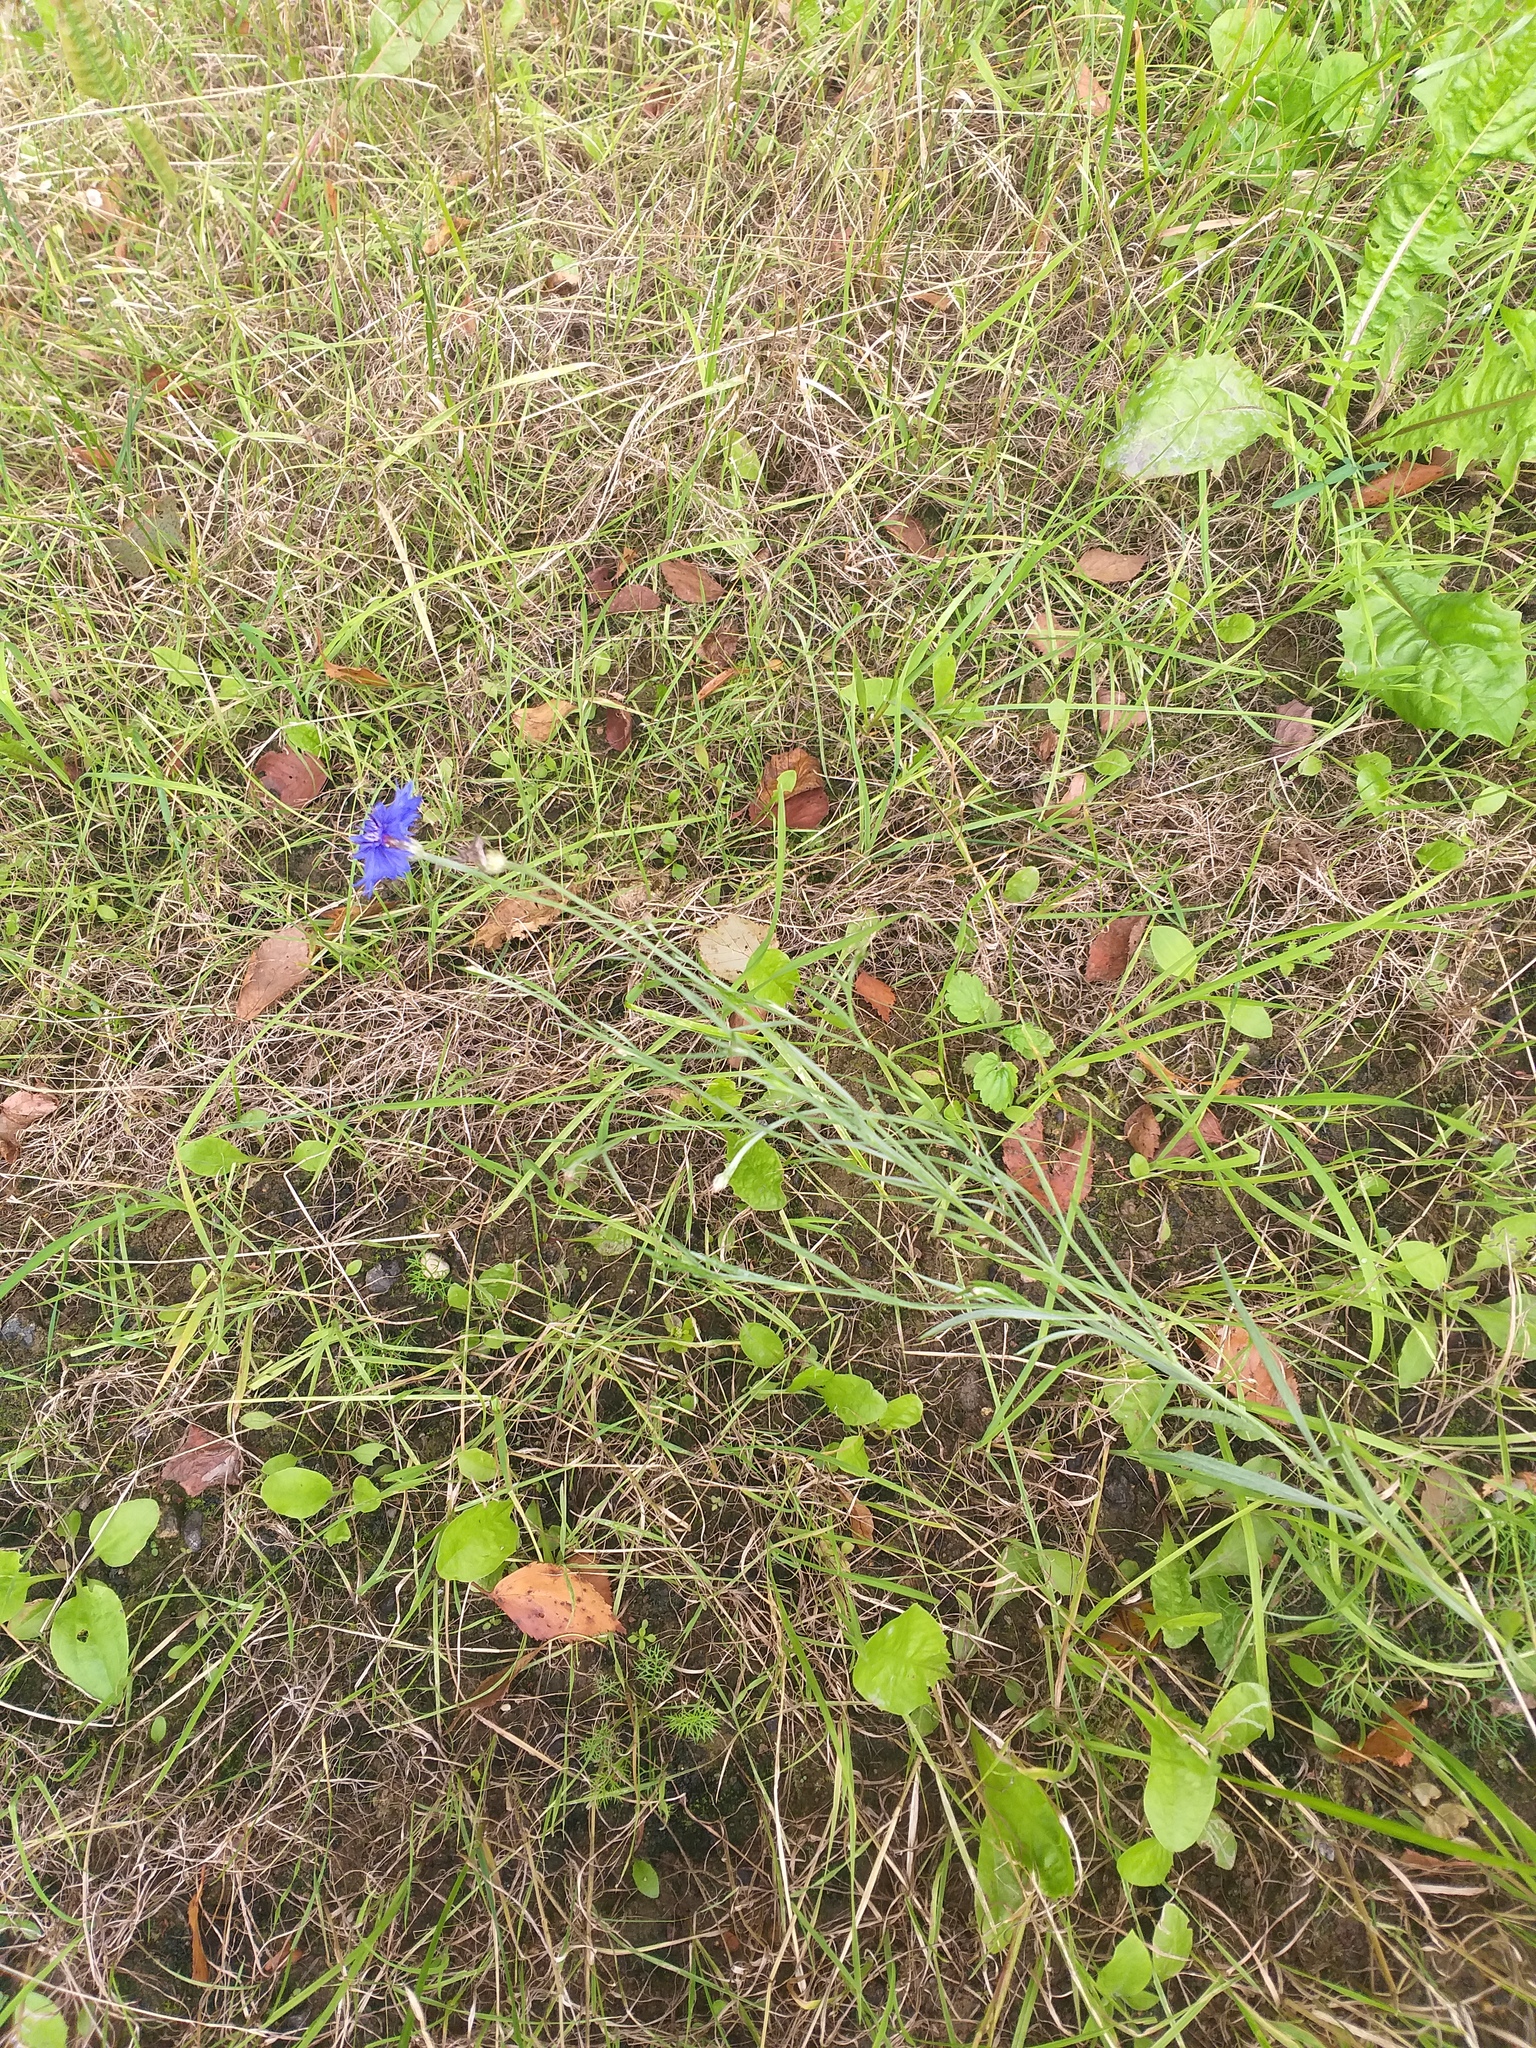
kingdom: Plantae
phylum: Tracheophyta
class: Magnoliopsida
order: Asterales
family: Asteraceae
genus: Centaurea
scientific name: Centaurea cyanus
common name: Cornflower
